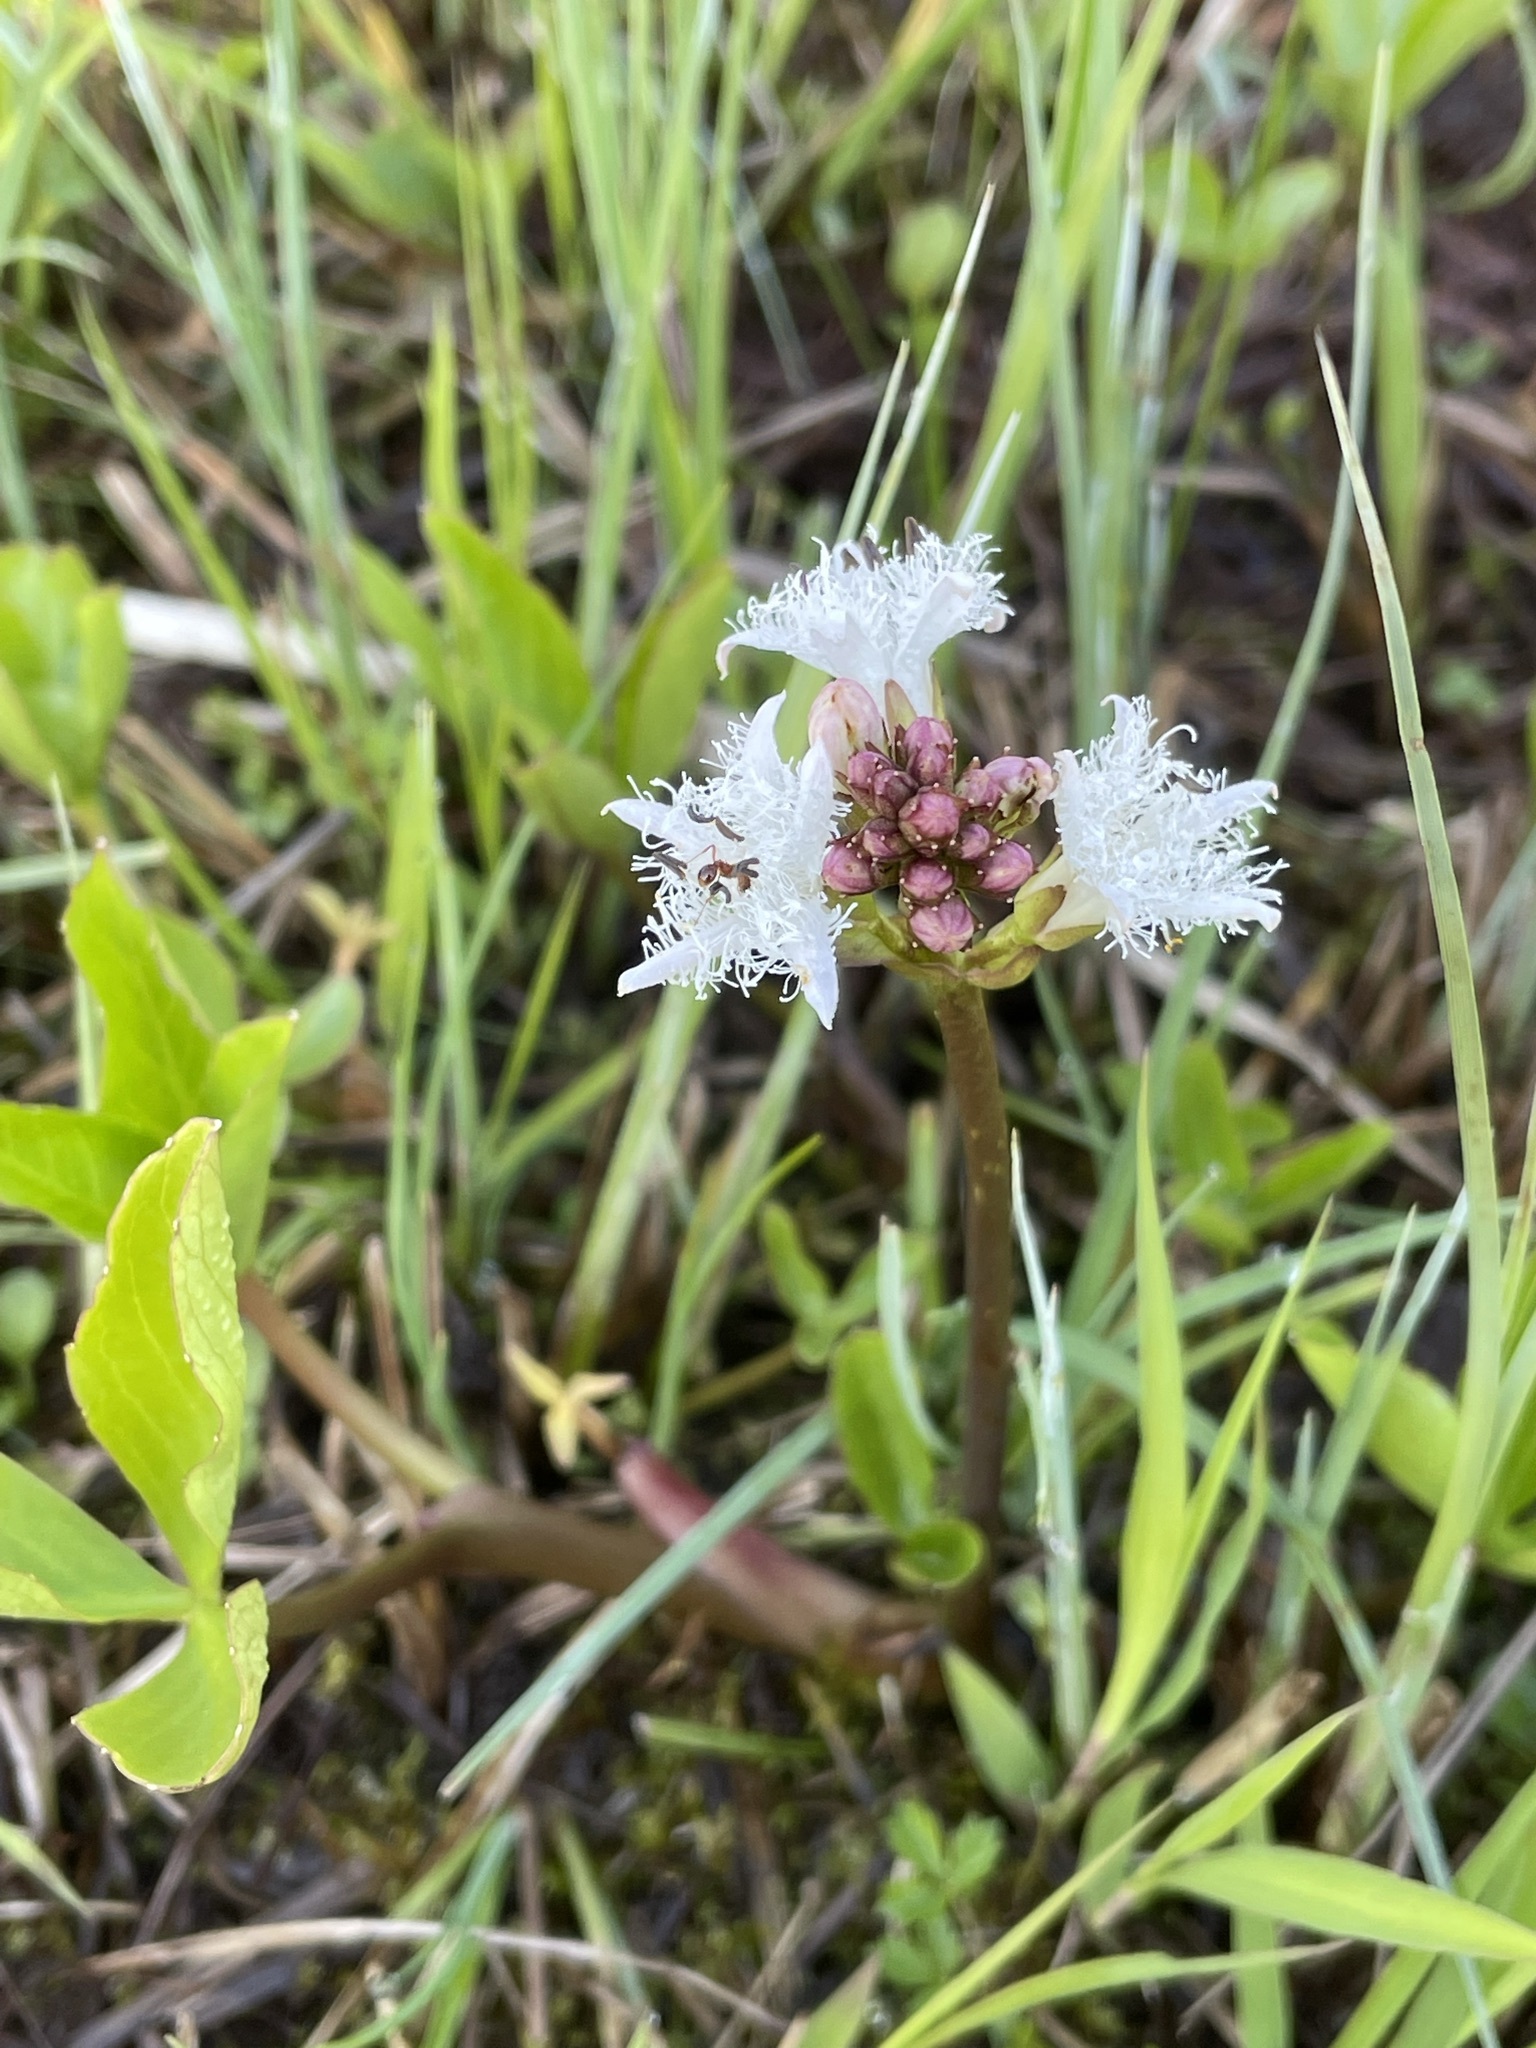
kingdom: Plantae
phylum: Tracheophyta
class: Magnoliopsida
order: Asterales
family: Menyanthaceae
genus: Menyanthes
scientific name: Menyanthes trifoliata
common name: Bogbean
